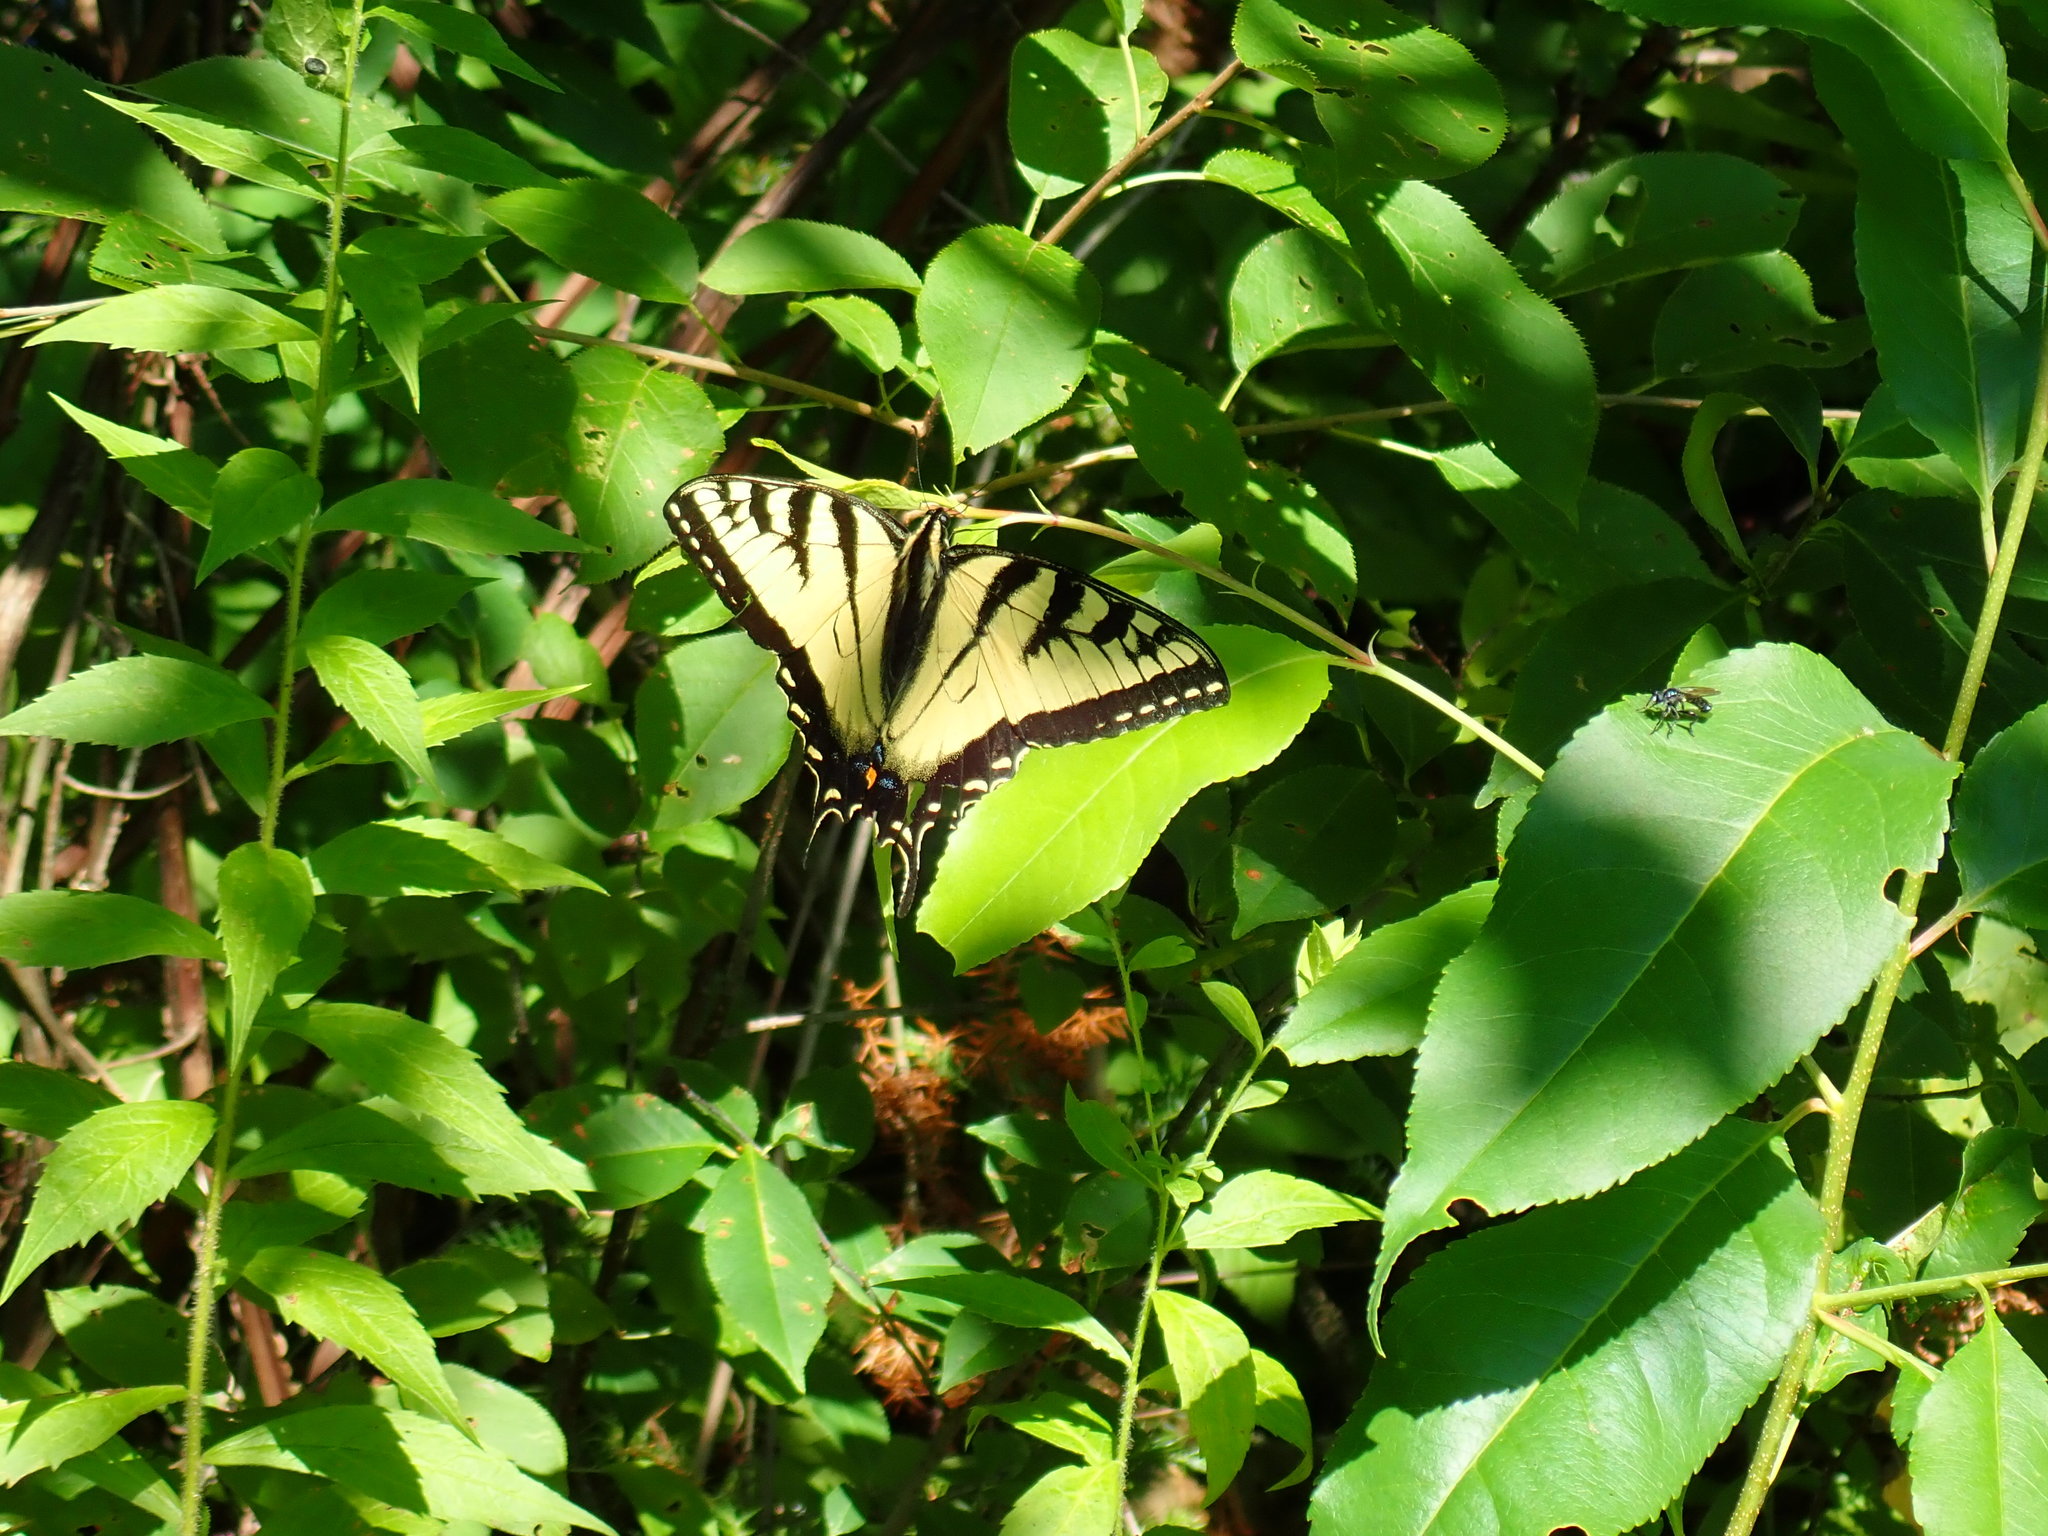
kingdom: Animalia
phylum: Arthropoda
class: Insecta
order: Lepidoptera
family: Papilionidae
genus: Papilio
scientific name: Papilio glaucus
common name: Tiger swallowtail
